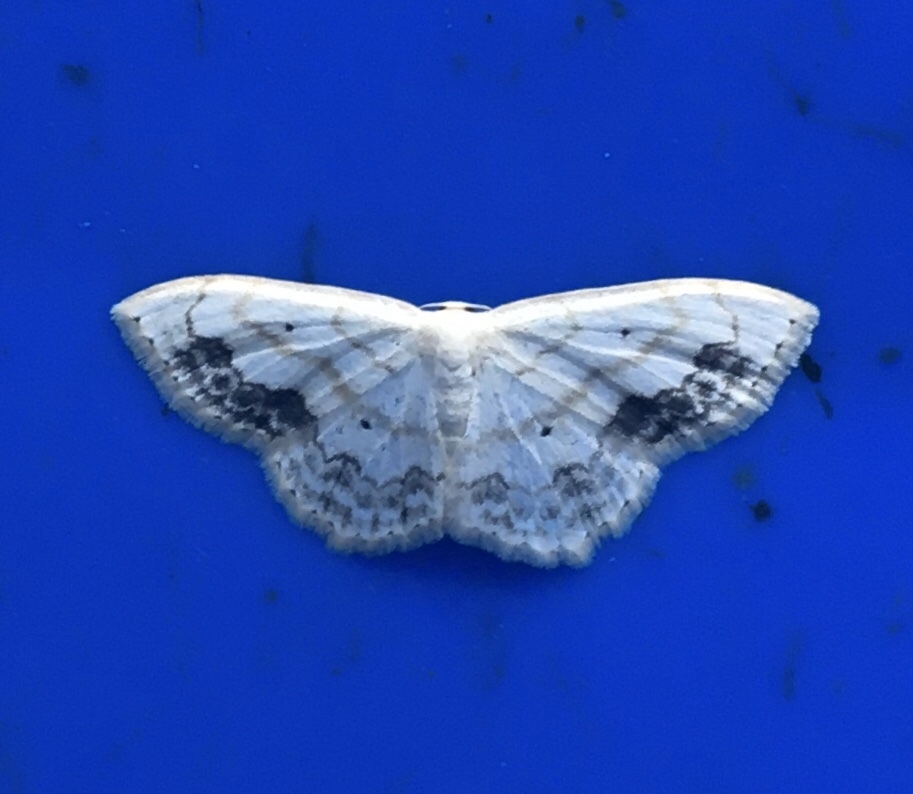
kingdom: Animalia
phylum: Arthropoda
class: Insecta
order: Lepidoptera
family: Geometridae
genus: Scopula
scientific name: Scopula limboundata
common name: Large lace border
